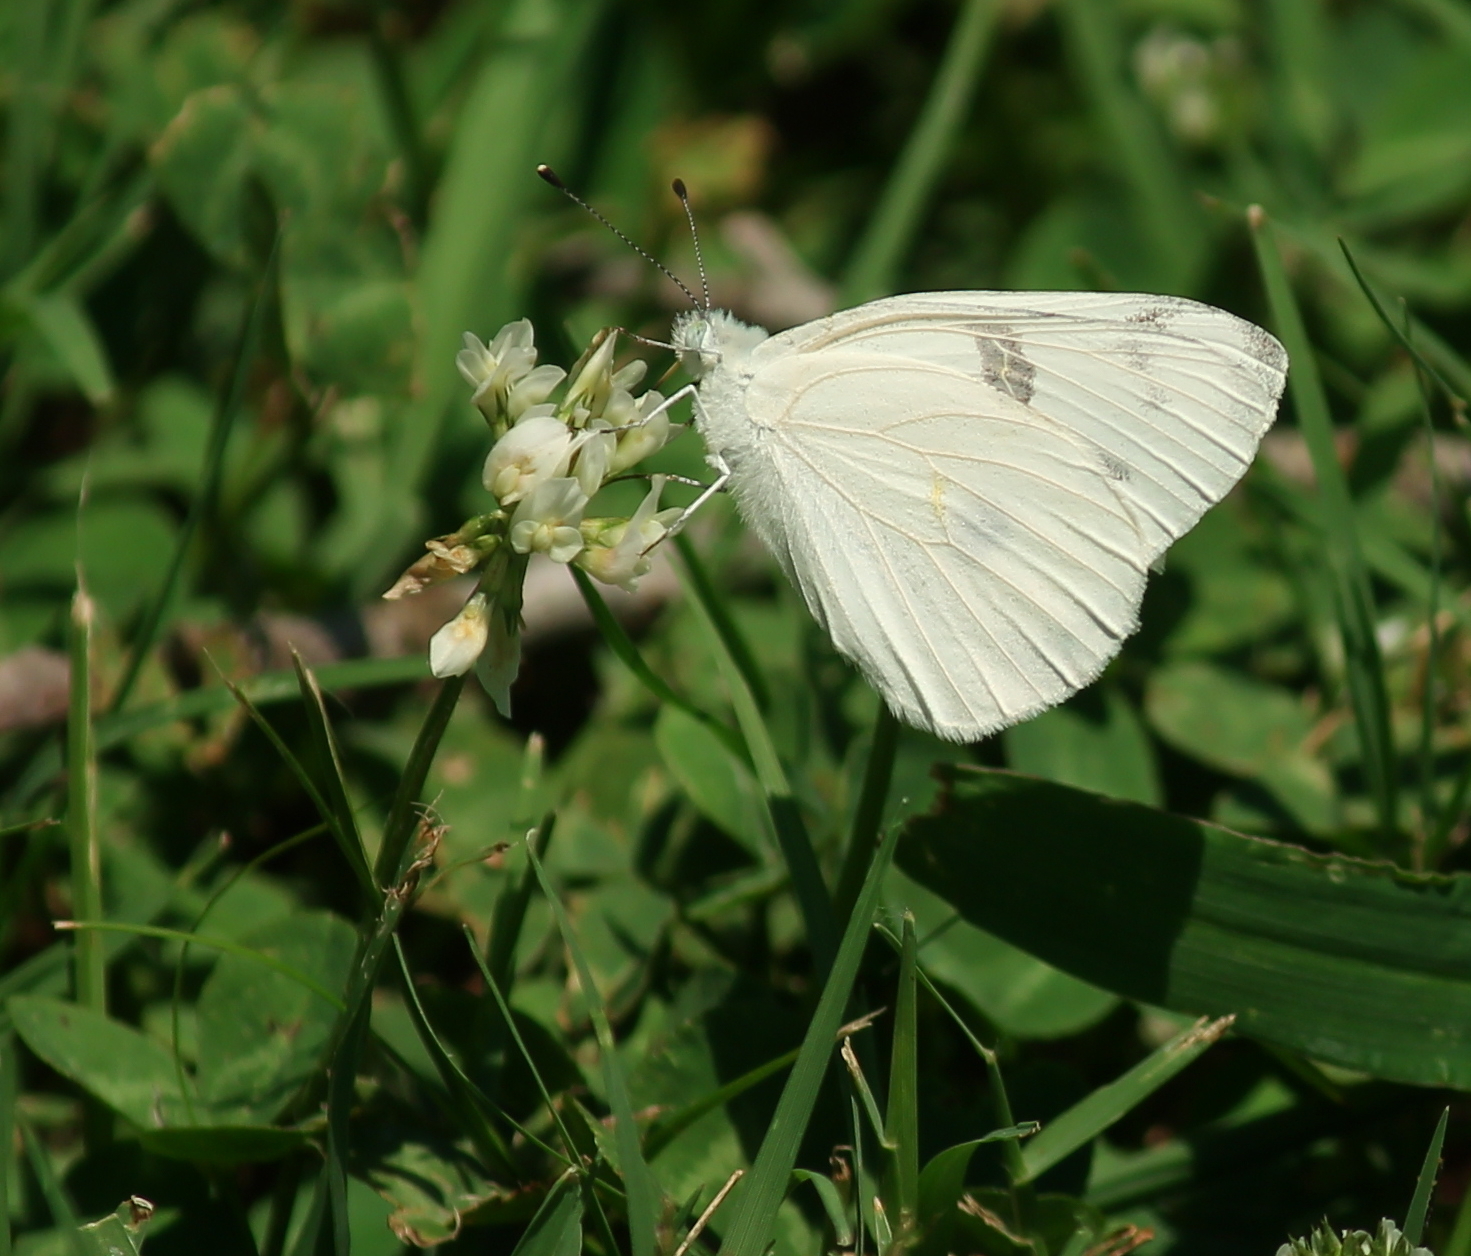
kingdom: Animalia
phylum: Arthropoda
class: Insecta
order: Lepidoptera
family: Pieridae
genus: Pontia
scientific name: Pontia protodice
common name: Checkered white
